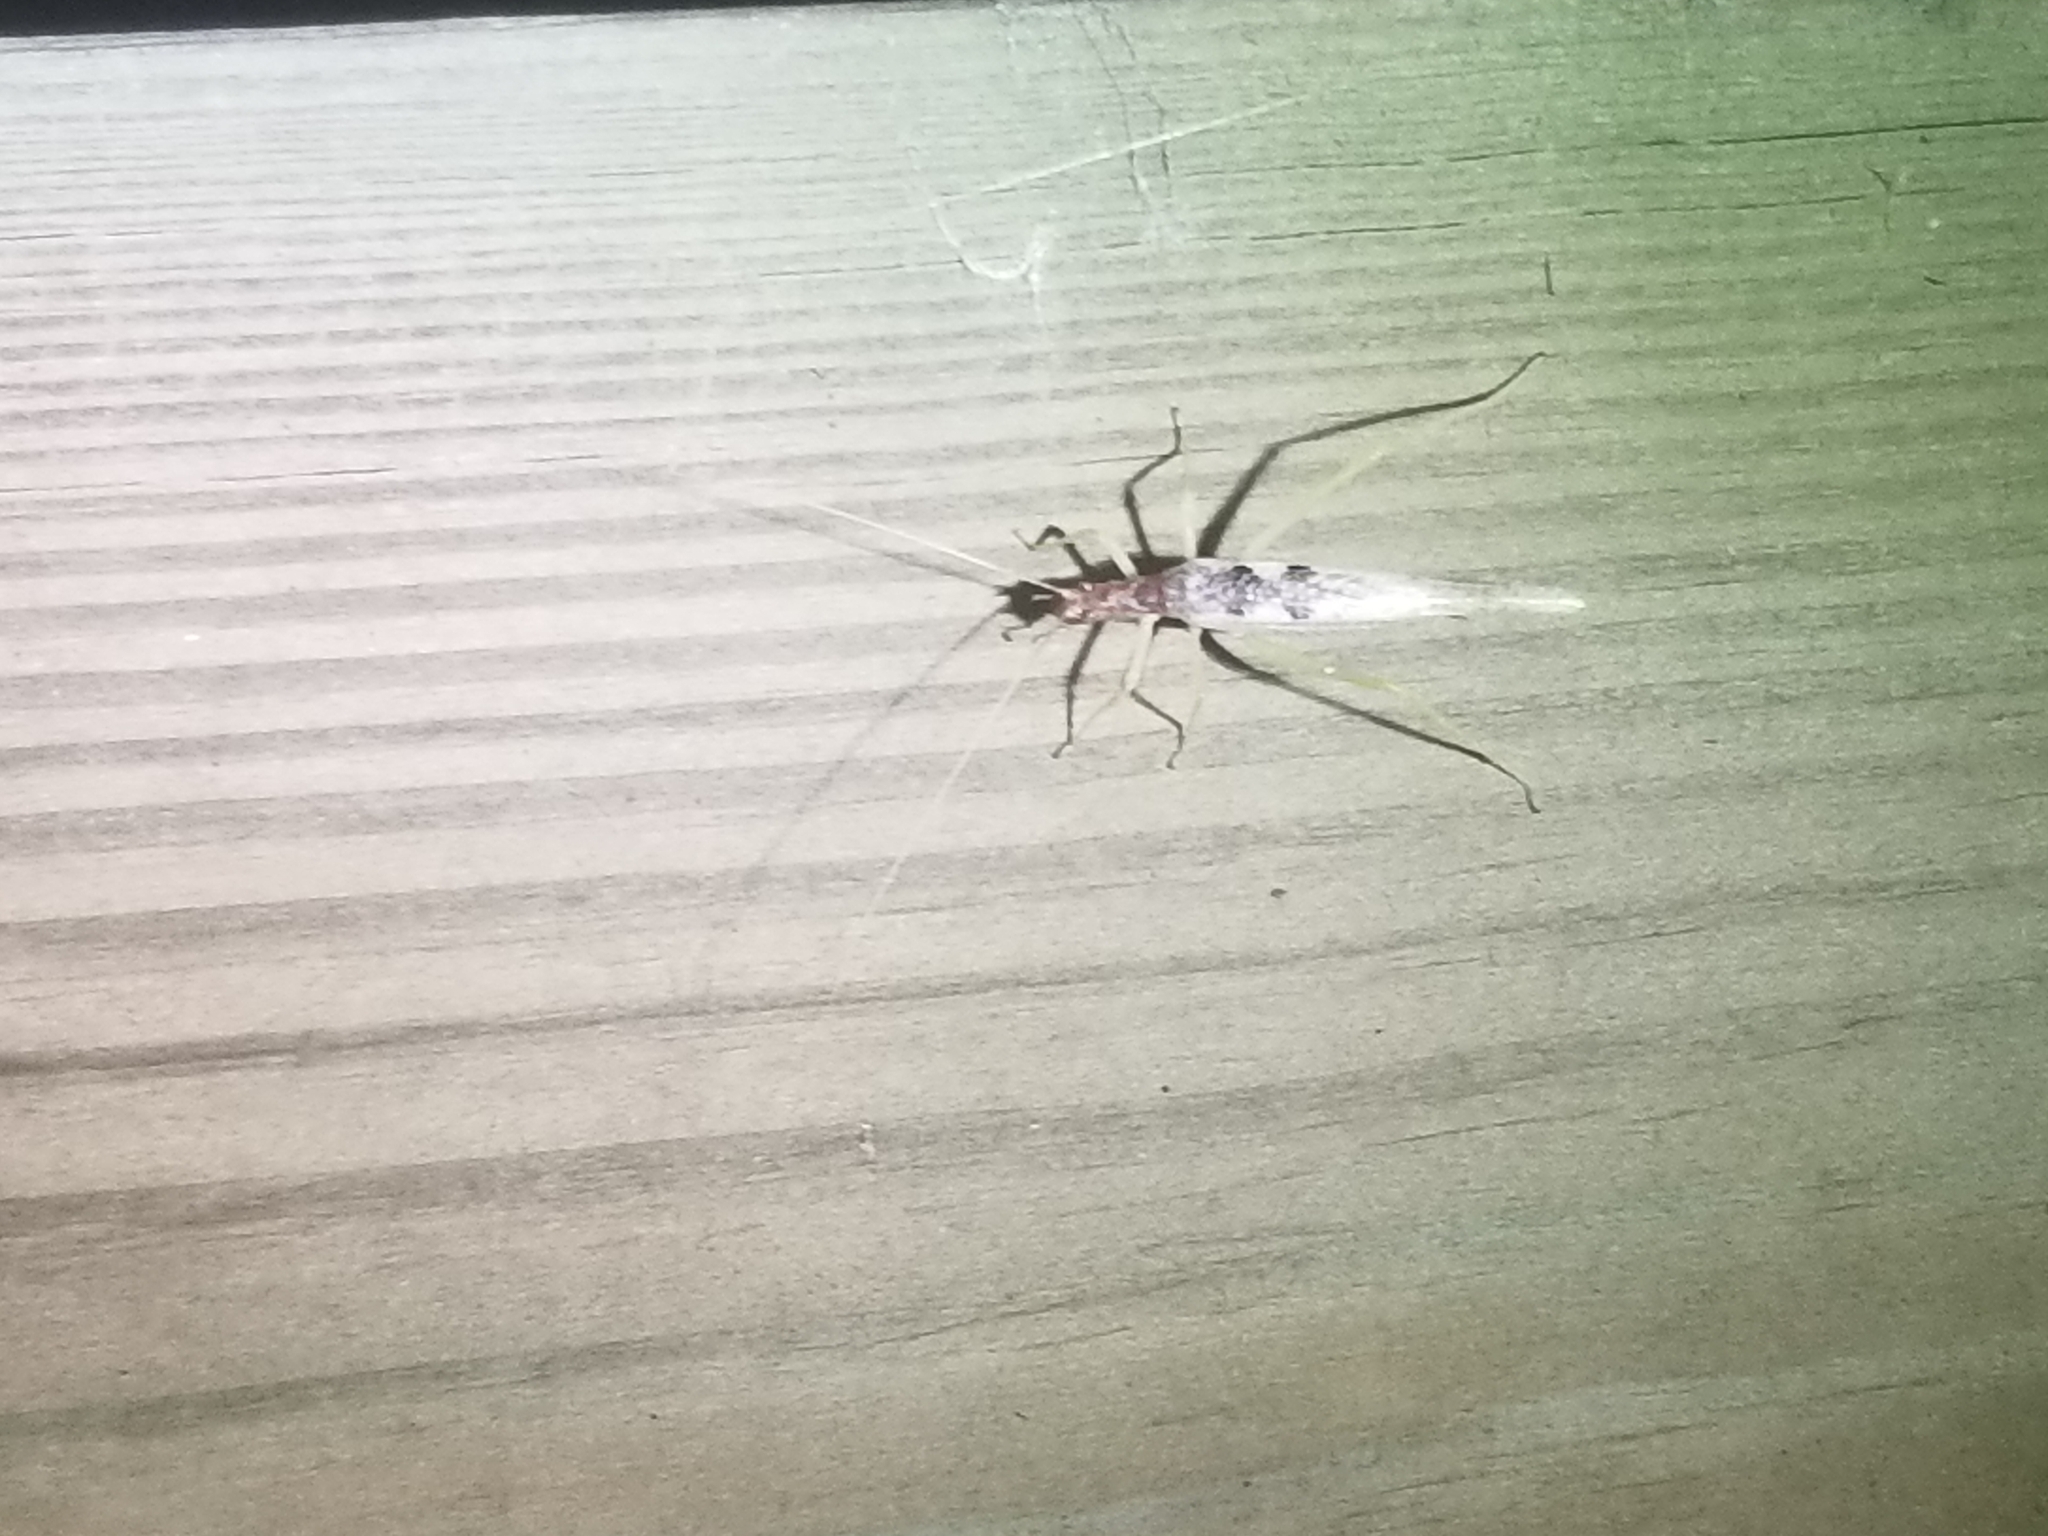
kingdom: Animalia
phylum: Arthropoda
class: Insecta
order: Orthoptera
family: Gryllidae
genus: Neoxabea
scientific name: Neoxabea bipunctata
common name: Two-spotted tree cricket
